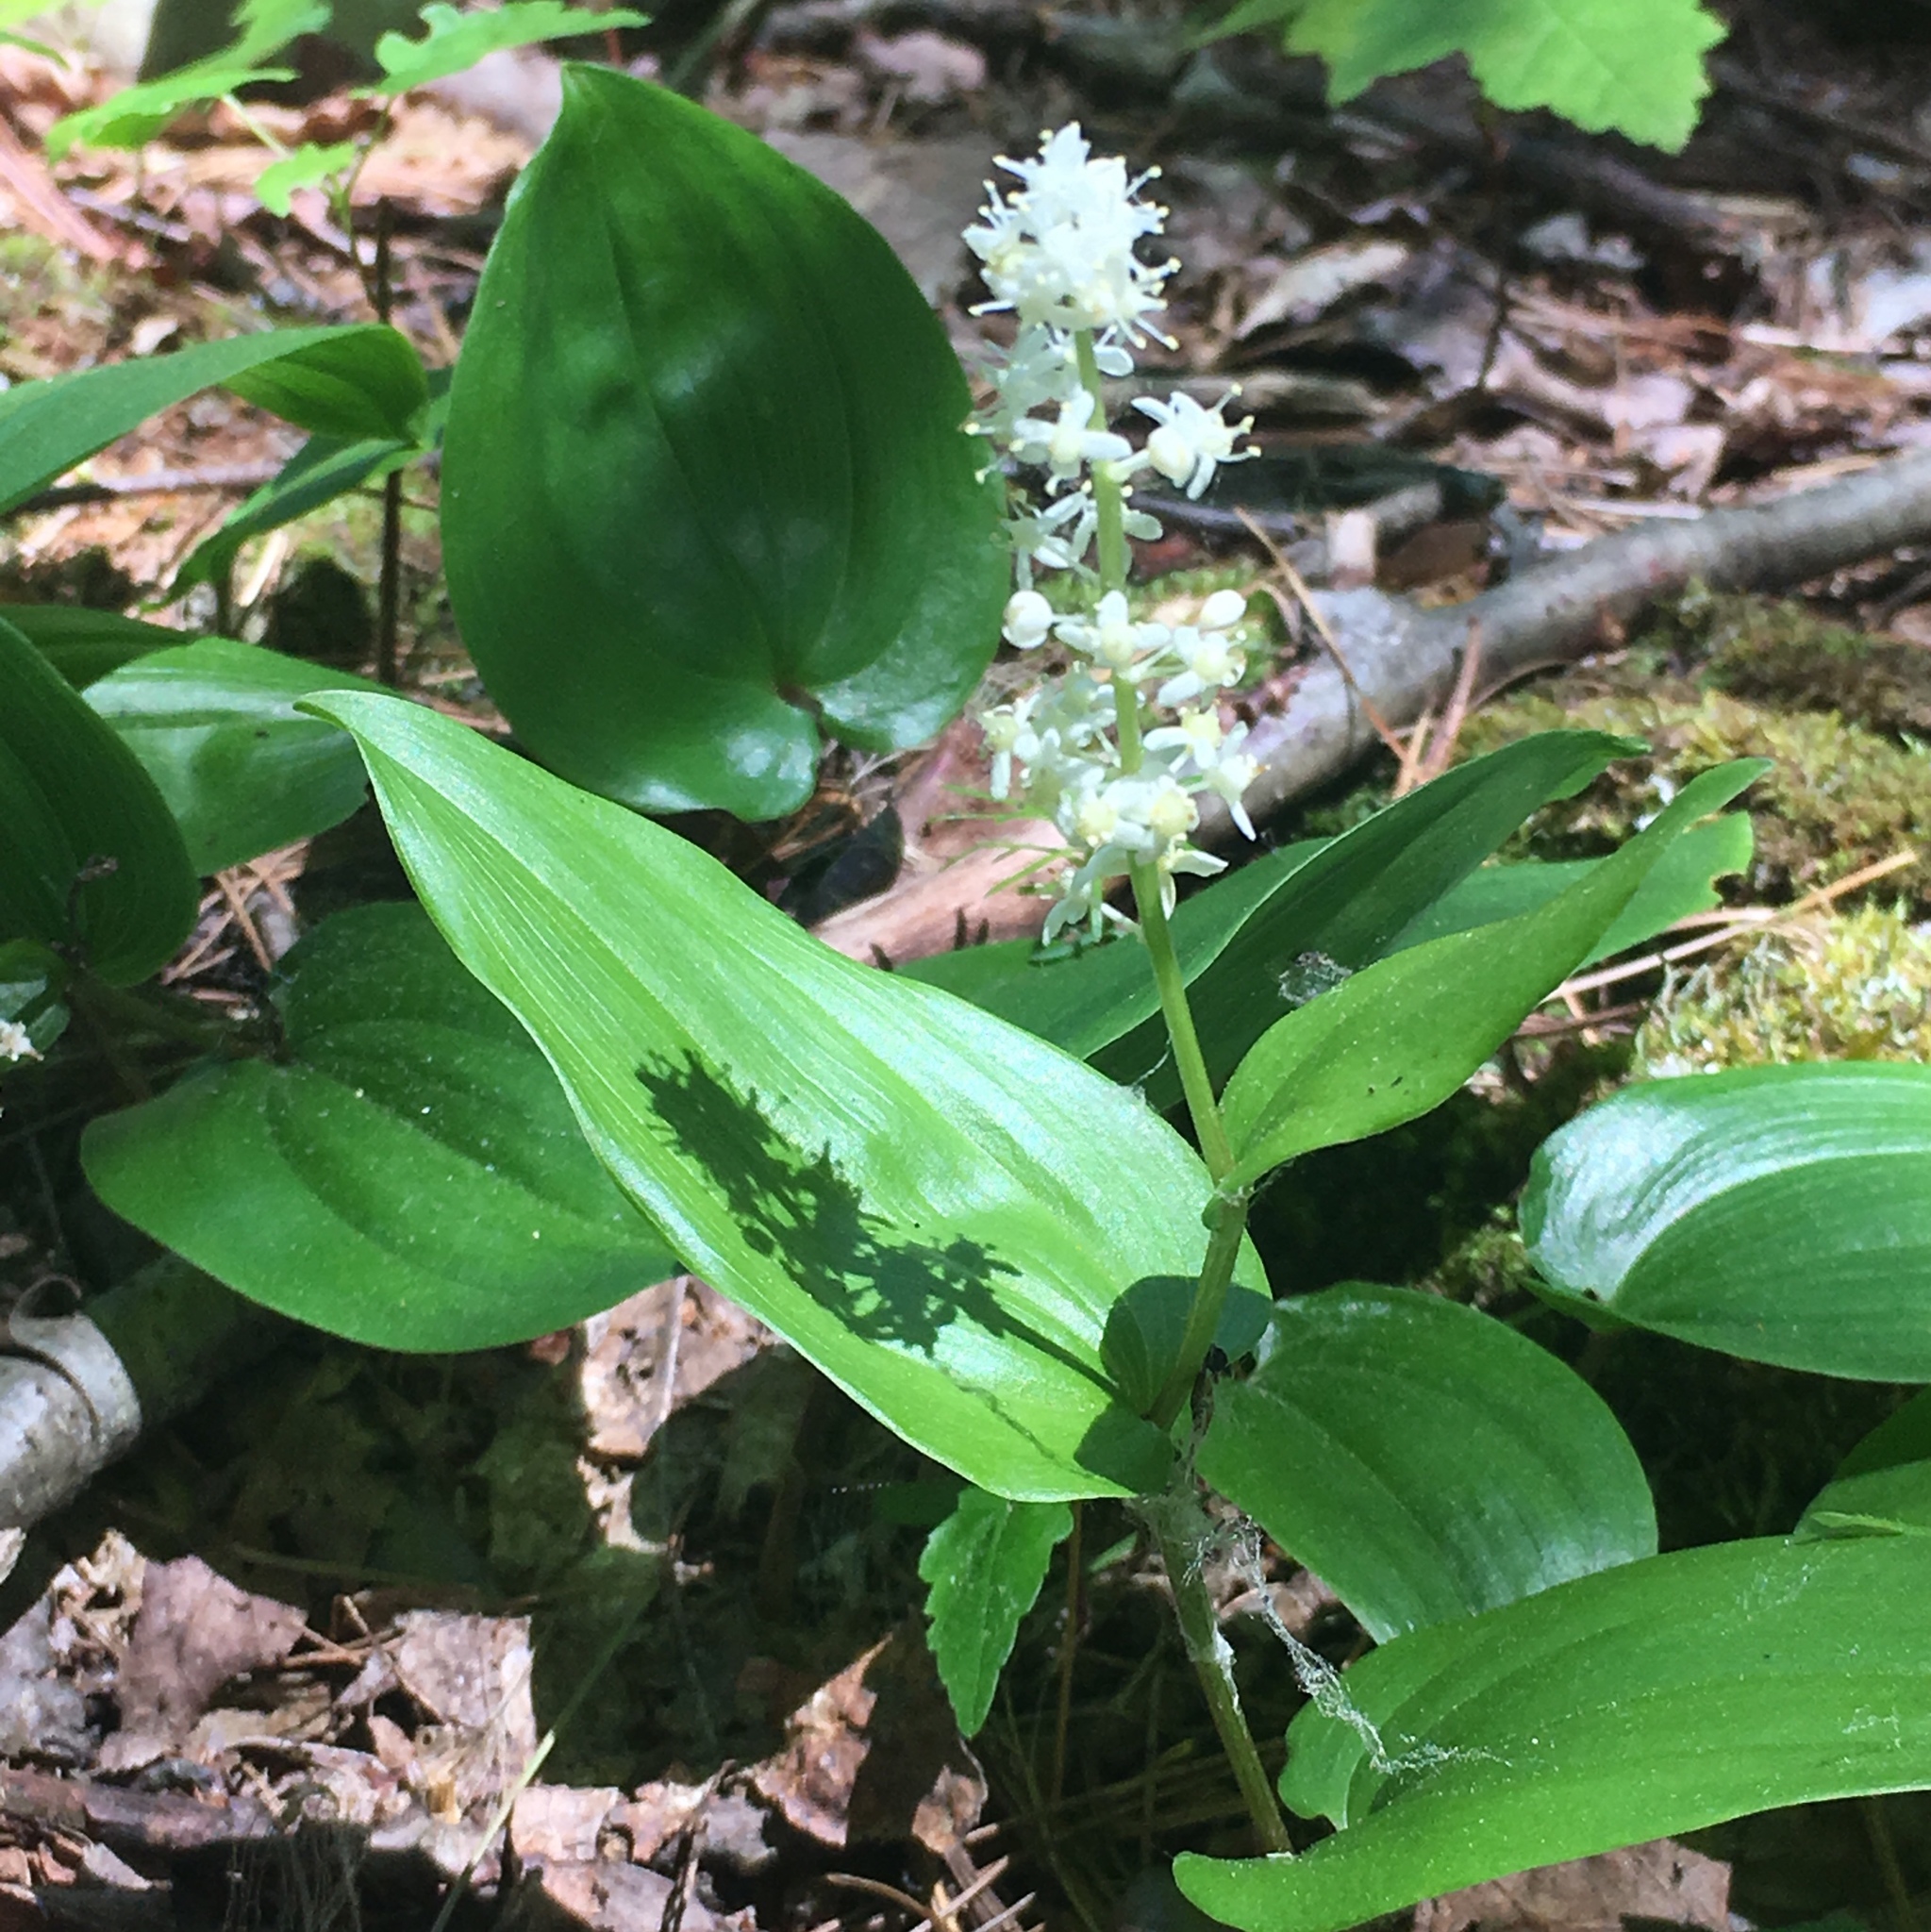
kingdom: Plantae
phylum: Tracheophyta
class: Liliopsida
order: Asparagales
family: Asparagaceae
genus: Maianthemum
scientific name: Maianthemum canadense
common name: False lily-of-the-valley
